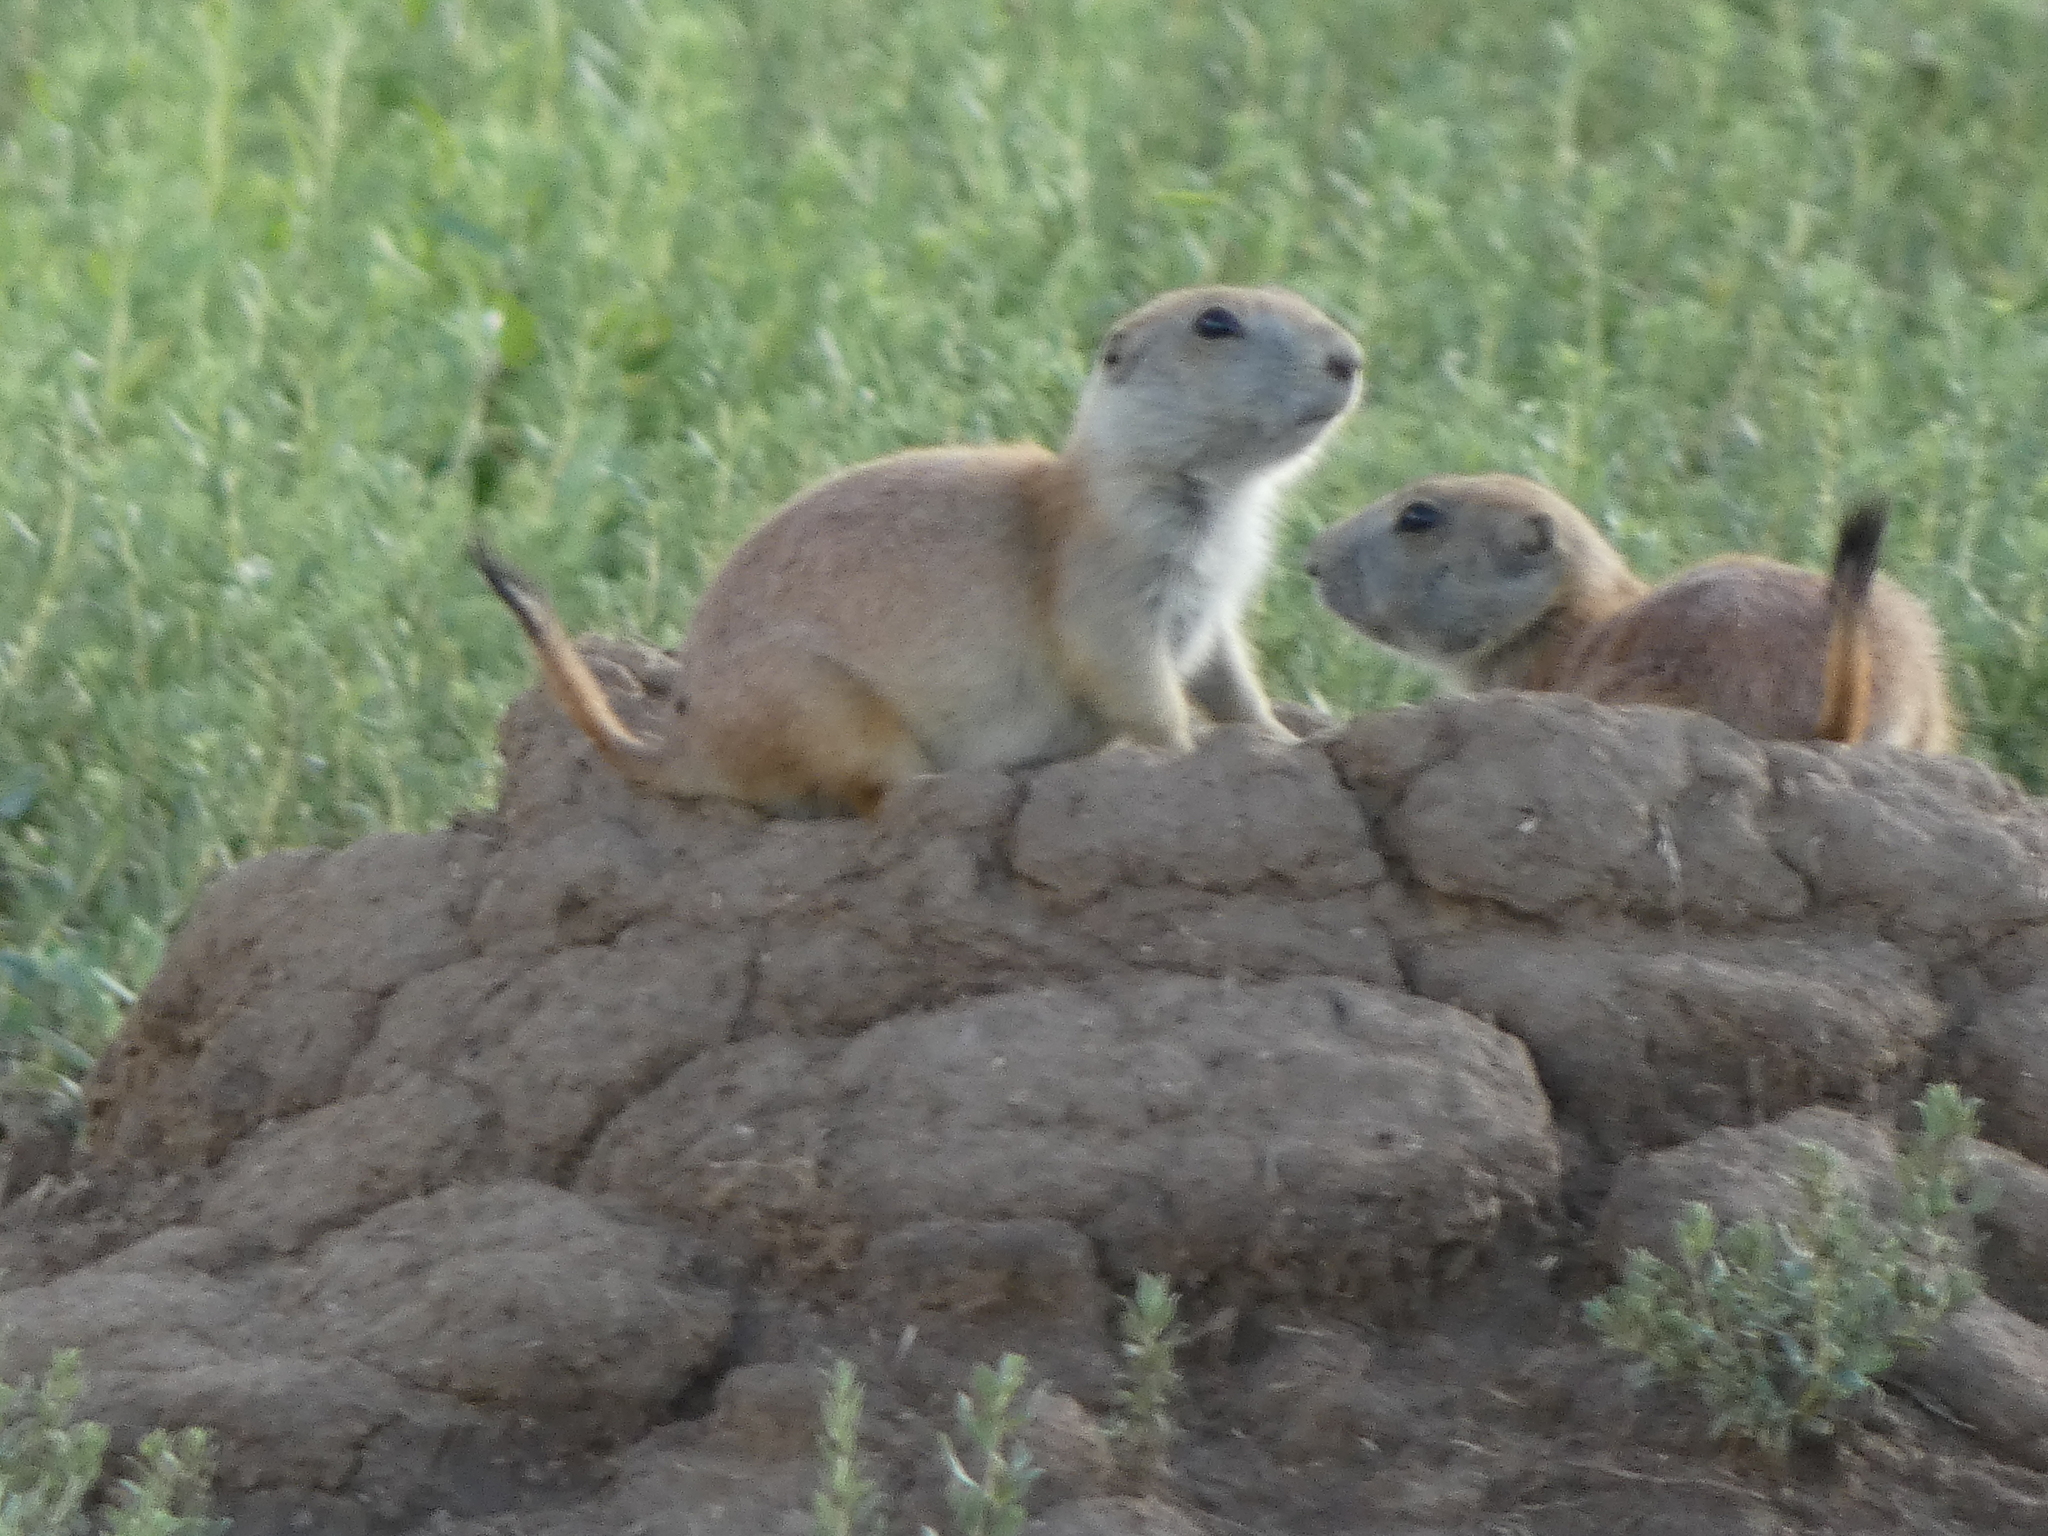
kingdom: Animalia
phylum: Chordata
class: Mammalia
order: Rodentia
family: Sciuridae
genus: Cynomys
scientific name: Cynomys ludovicianus
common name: Black-tailed prairie dog
